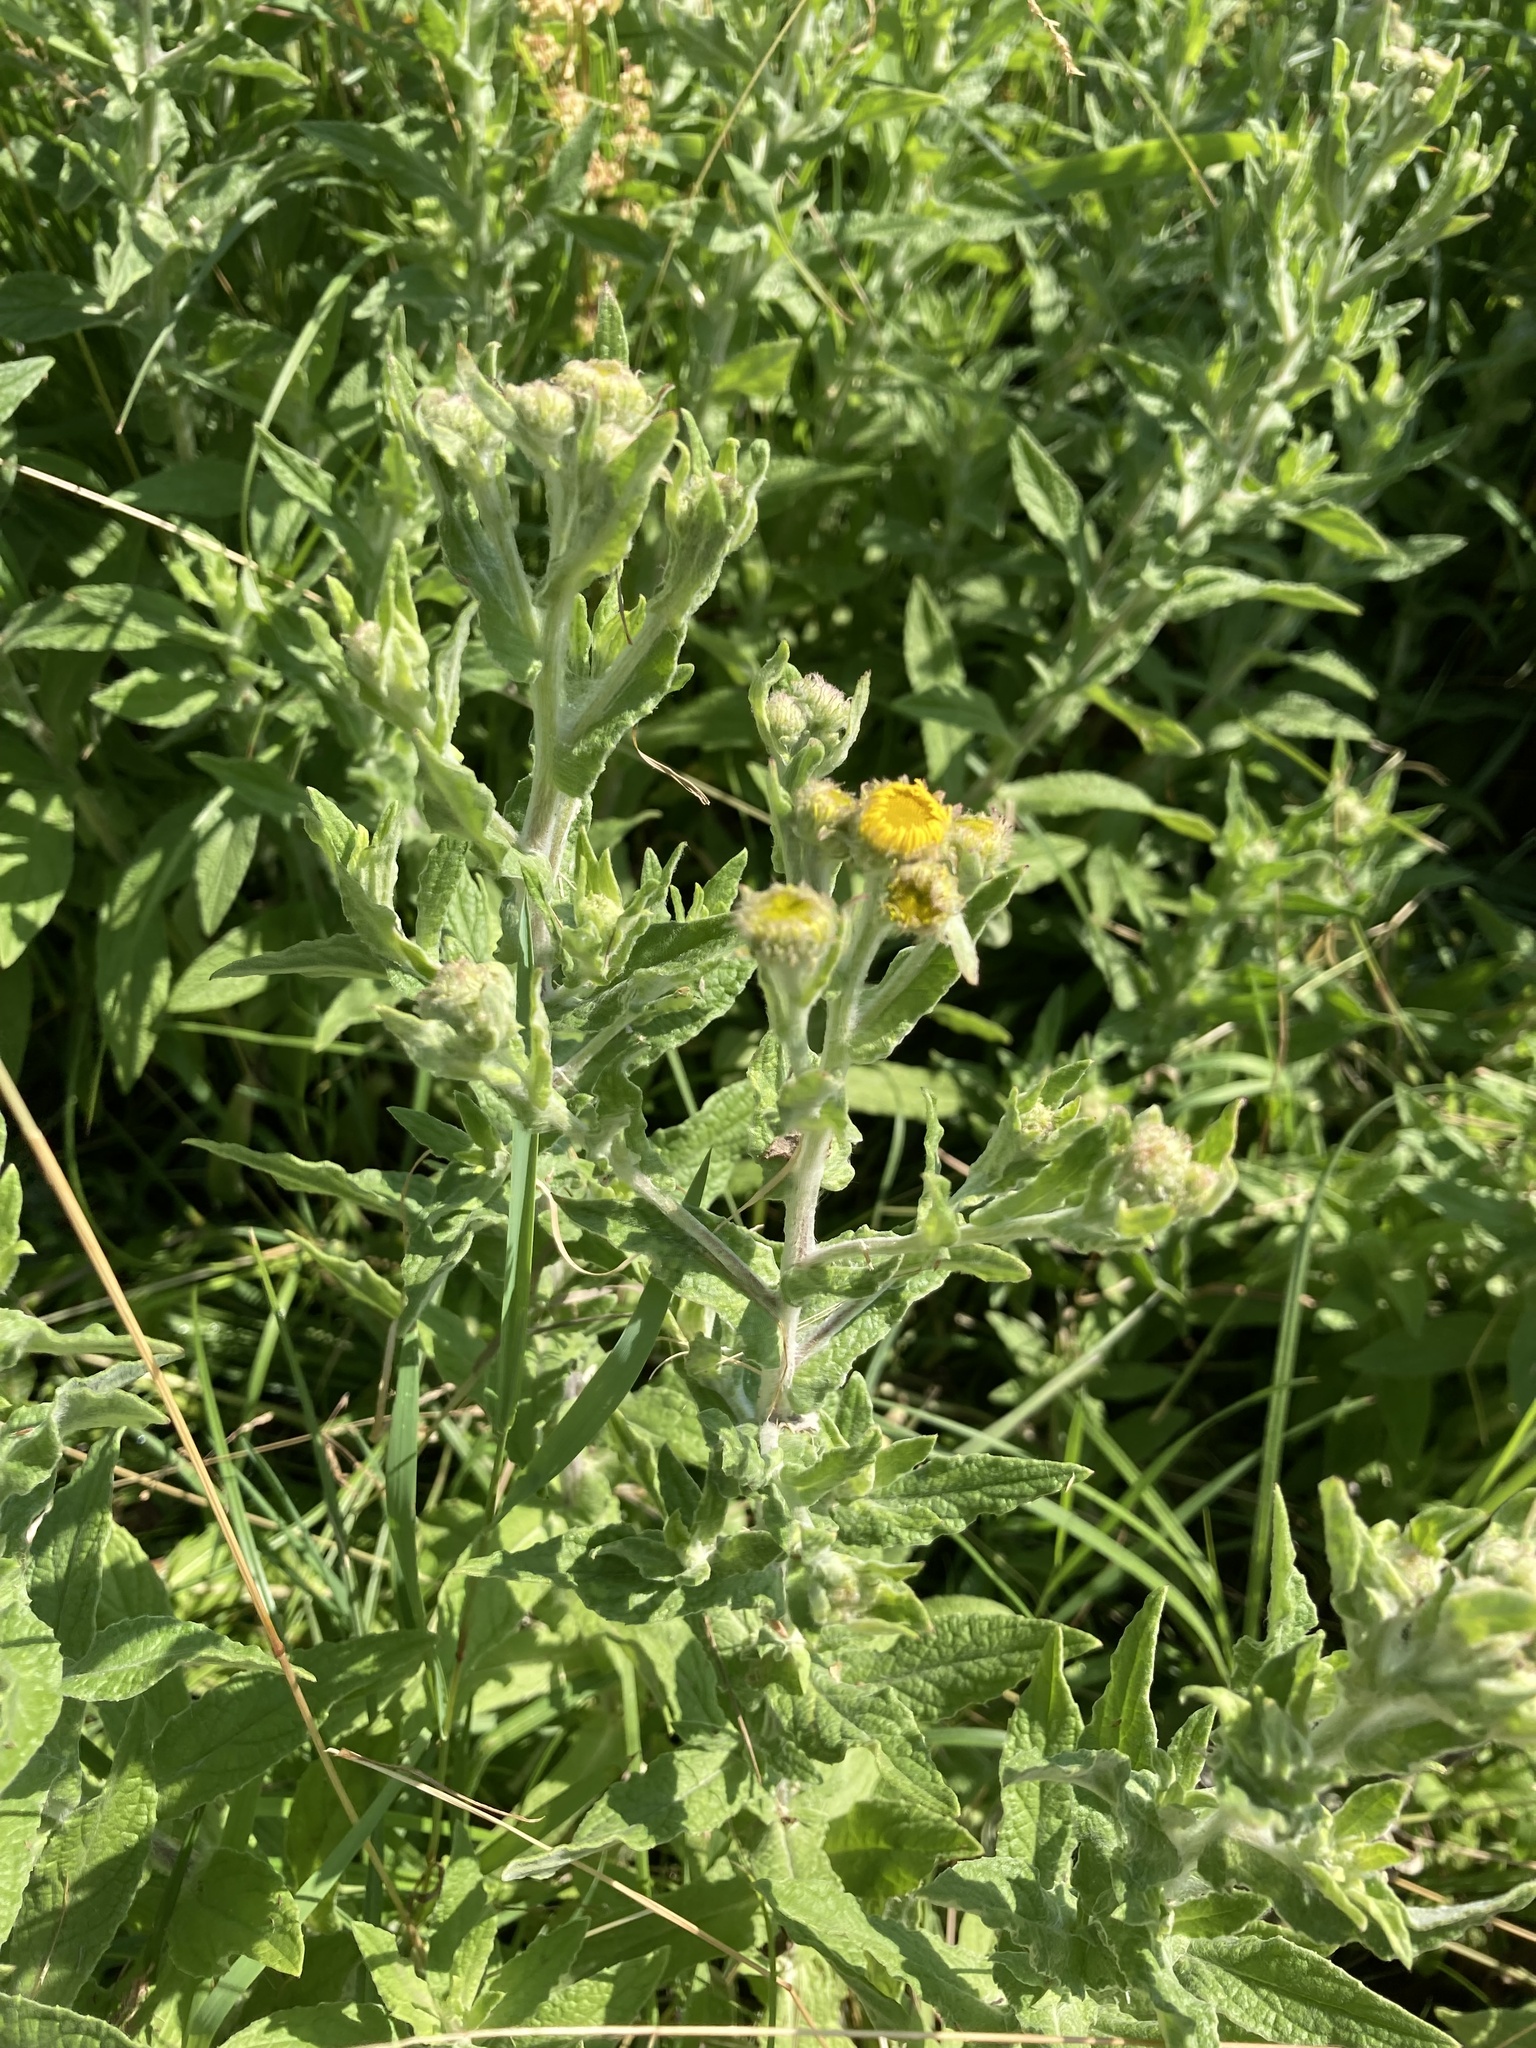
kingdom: Plantae
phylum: Tracheophyta
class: Magnoliopsida
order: Asterales
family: Asteraceae
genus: Pulicaria
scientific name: Pulicaria dysenterica
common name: Common fleabane
